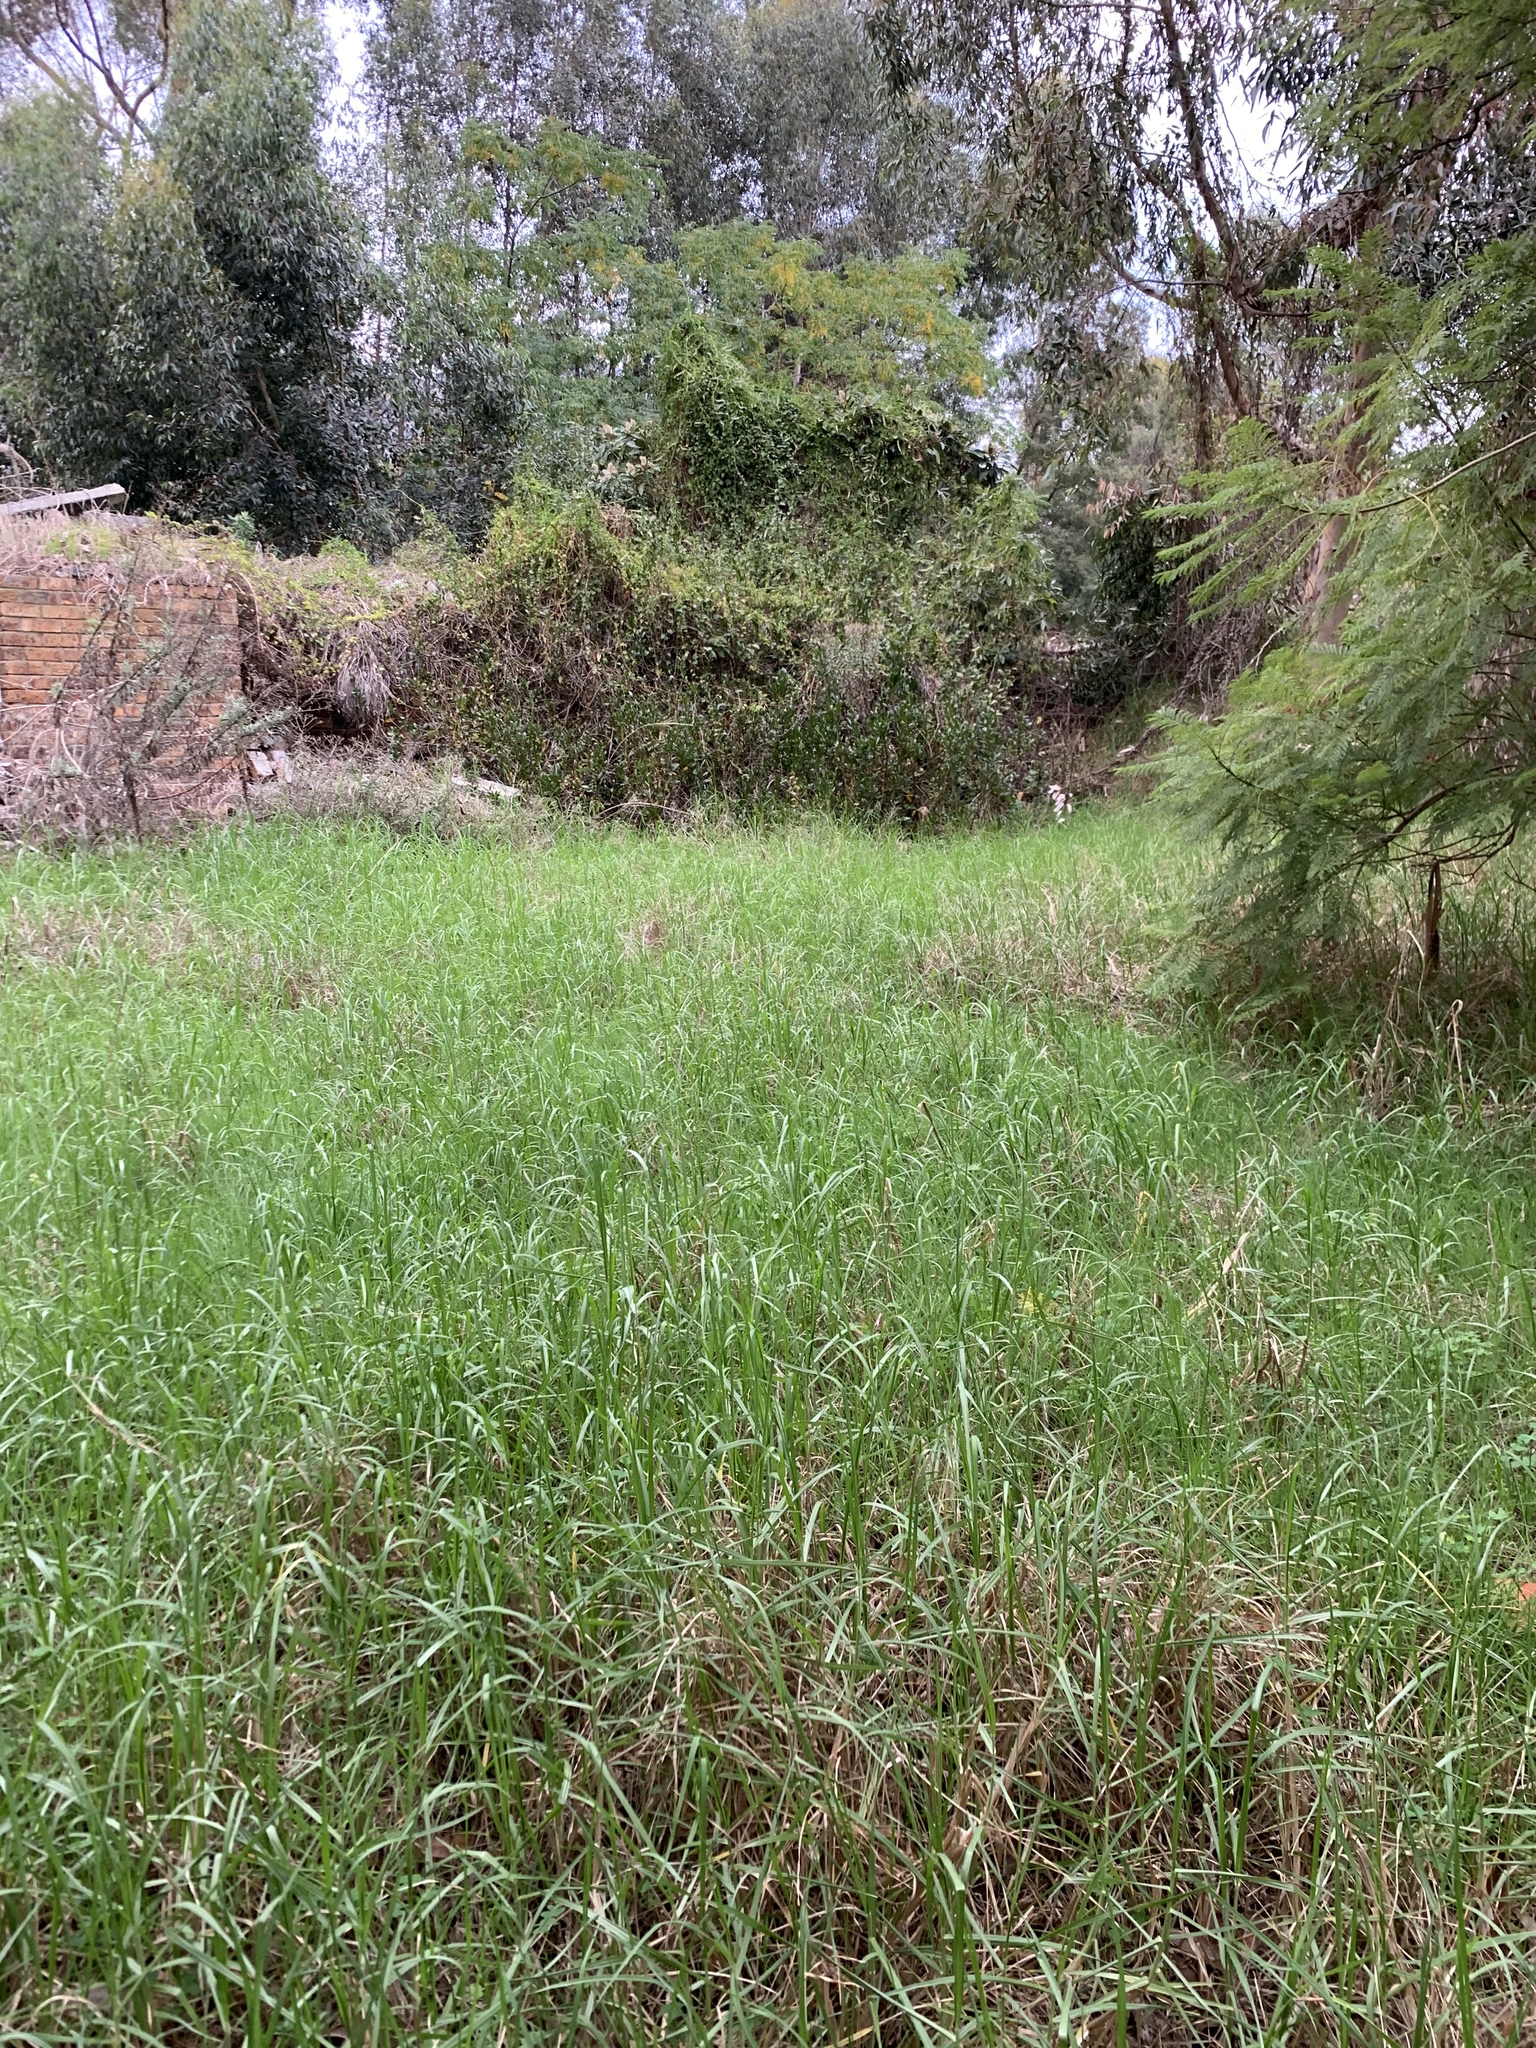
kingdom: Plantae
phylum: Tracheophyta
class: Liliopsida
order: Poales
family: Poaceae
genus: Cenchrus
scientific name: Cenchrus clandestinus
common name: Kikuyugrass
